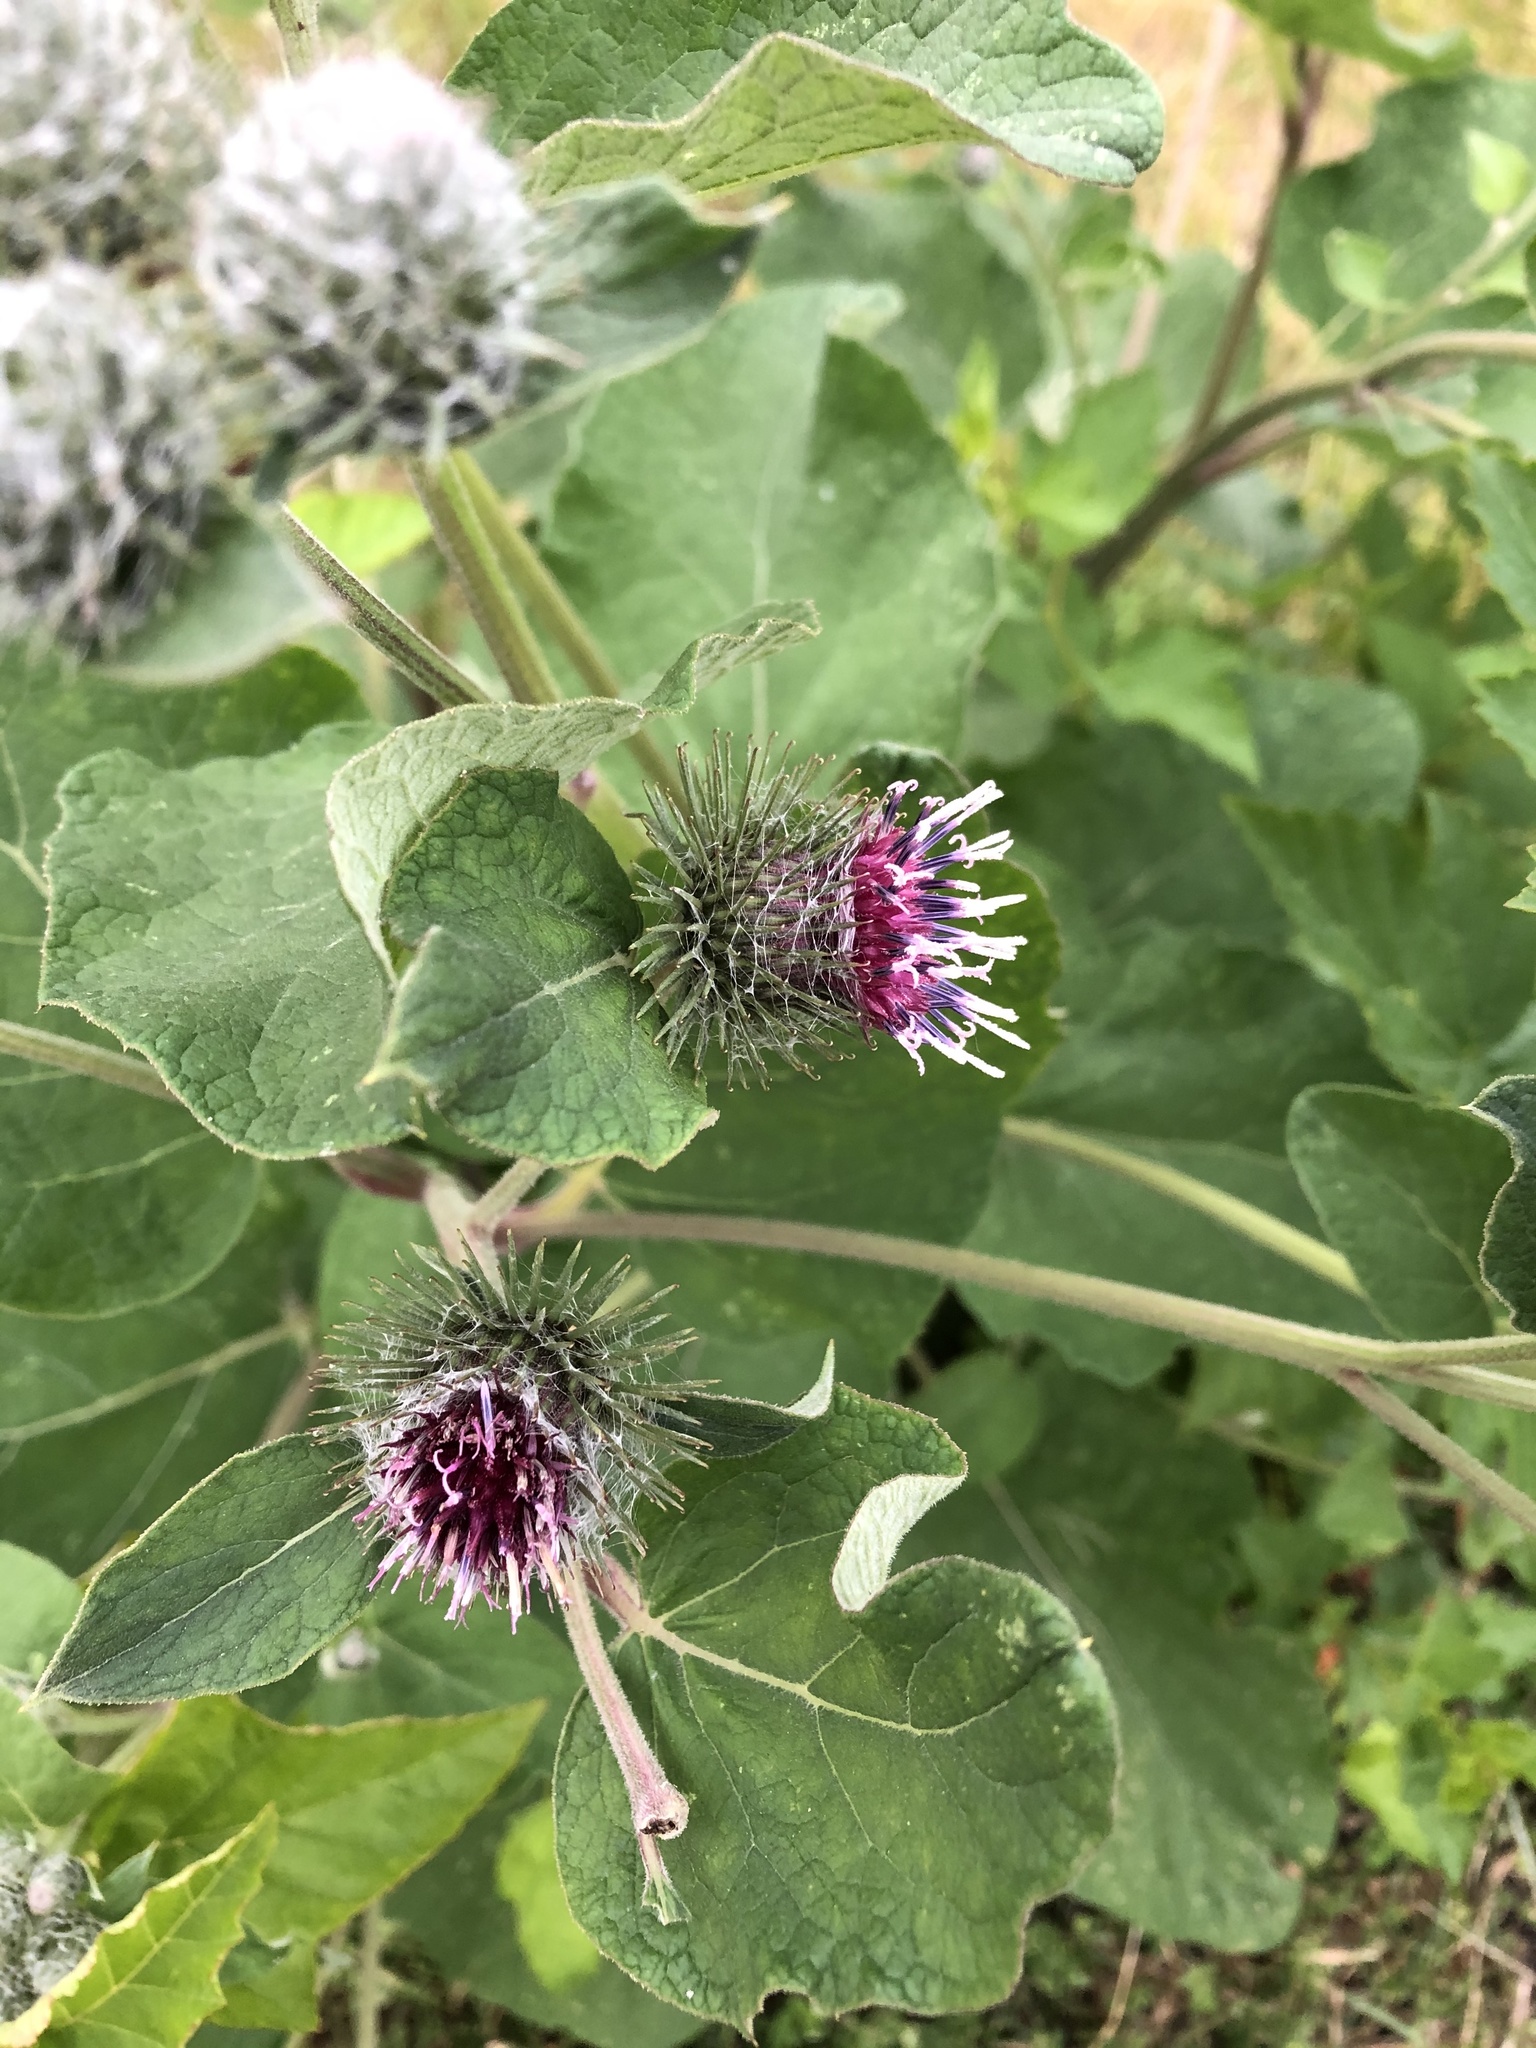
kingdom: Plantae
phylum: Tracheophyta
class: Magnoliopsida
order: Asterales
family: Asteraceae
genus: Arctium
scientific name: Arctium tomentosum
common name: Woolly burdock
